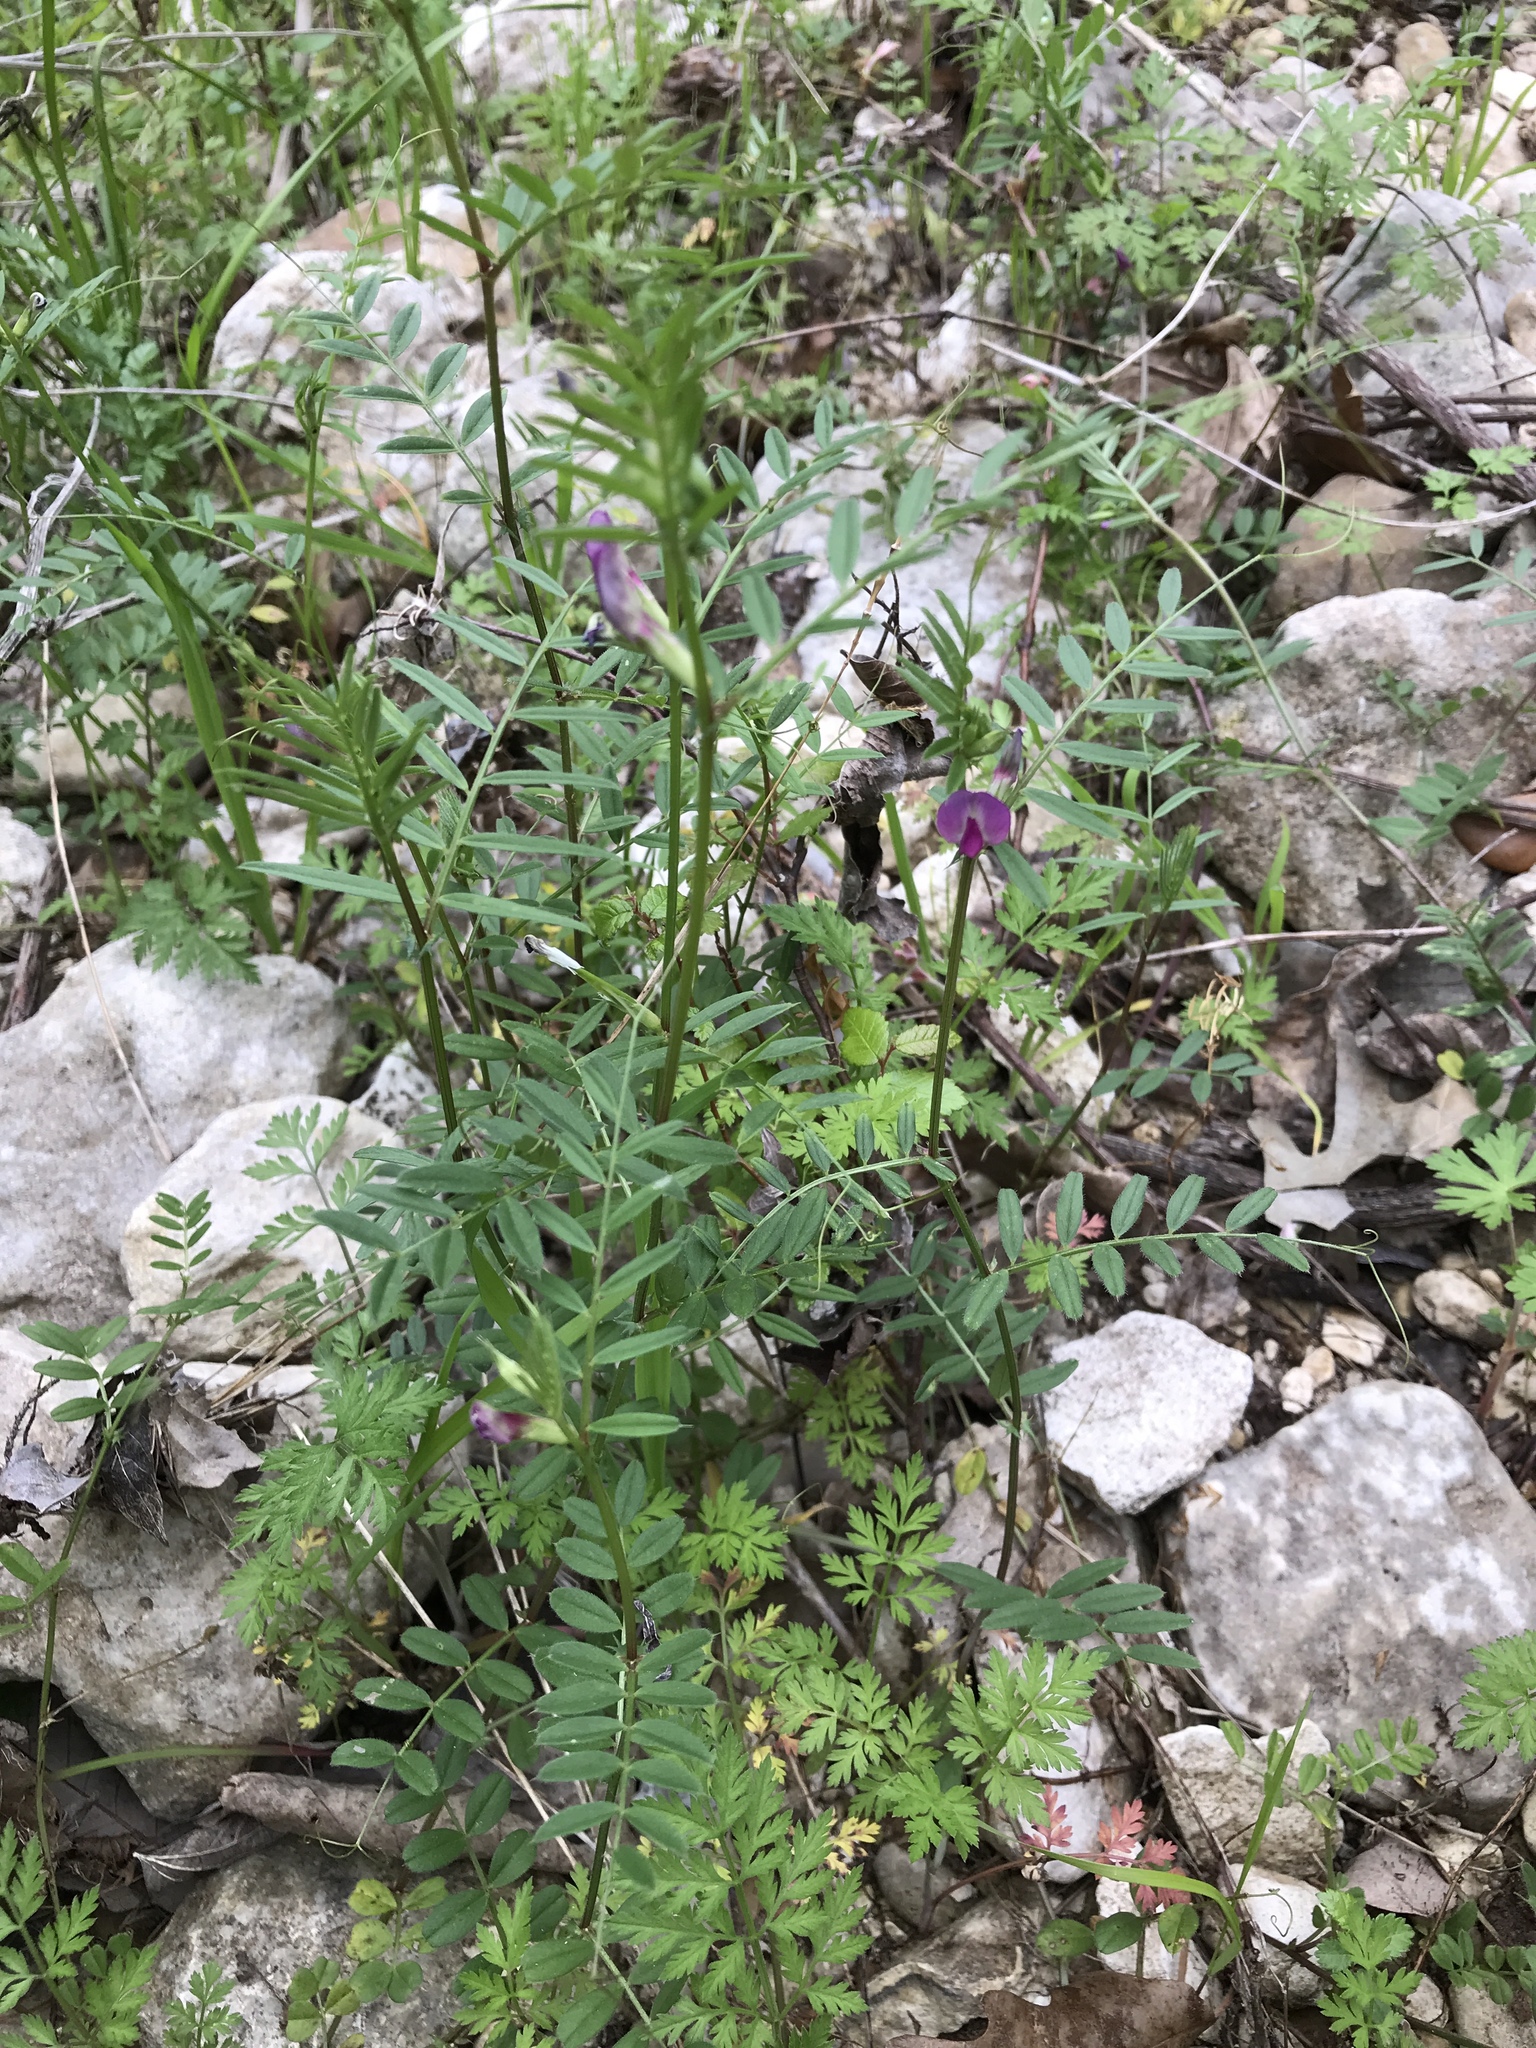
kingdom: Plantae
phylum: Tracheophyta
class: Magnoliopsida
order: Fabales
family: Fabaceae
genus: Vicia
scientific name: Vicia sativa
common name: Garden vetch
